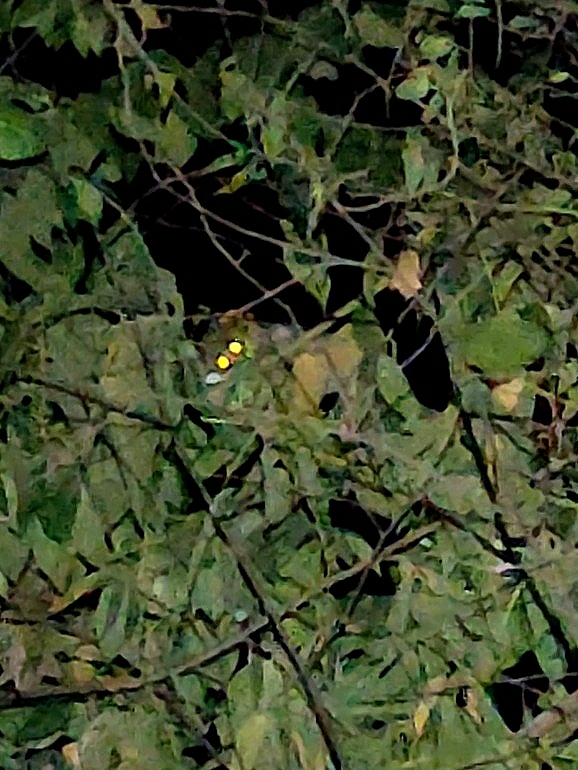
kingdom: Animalia
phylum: Chordata
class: Mammalia
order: Primates
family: Lorisidae
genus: Loris
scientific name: Loris lydekkerianus
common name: Gray slender loris
